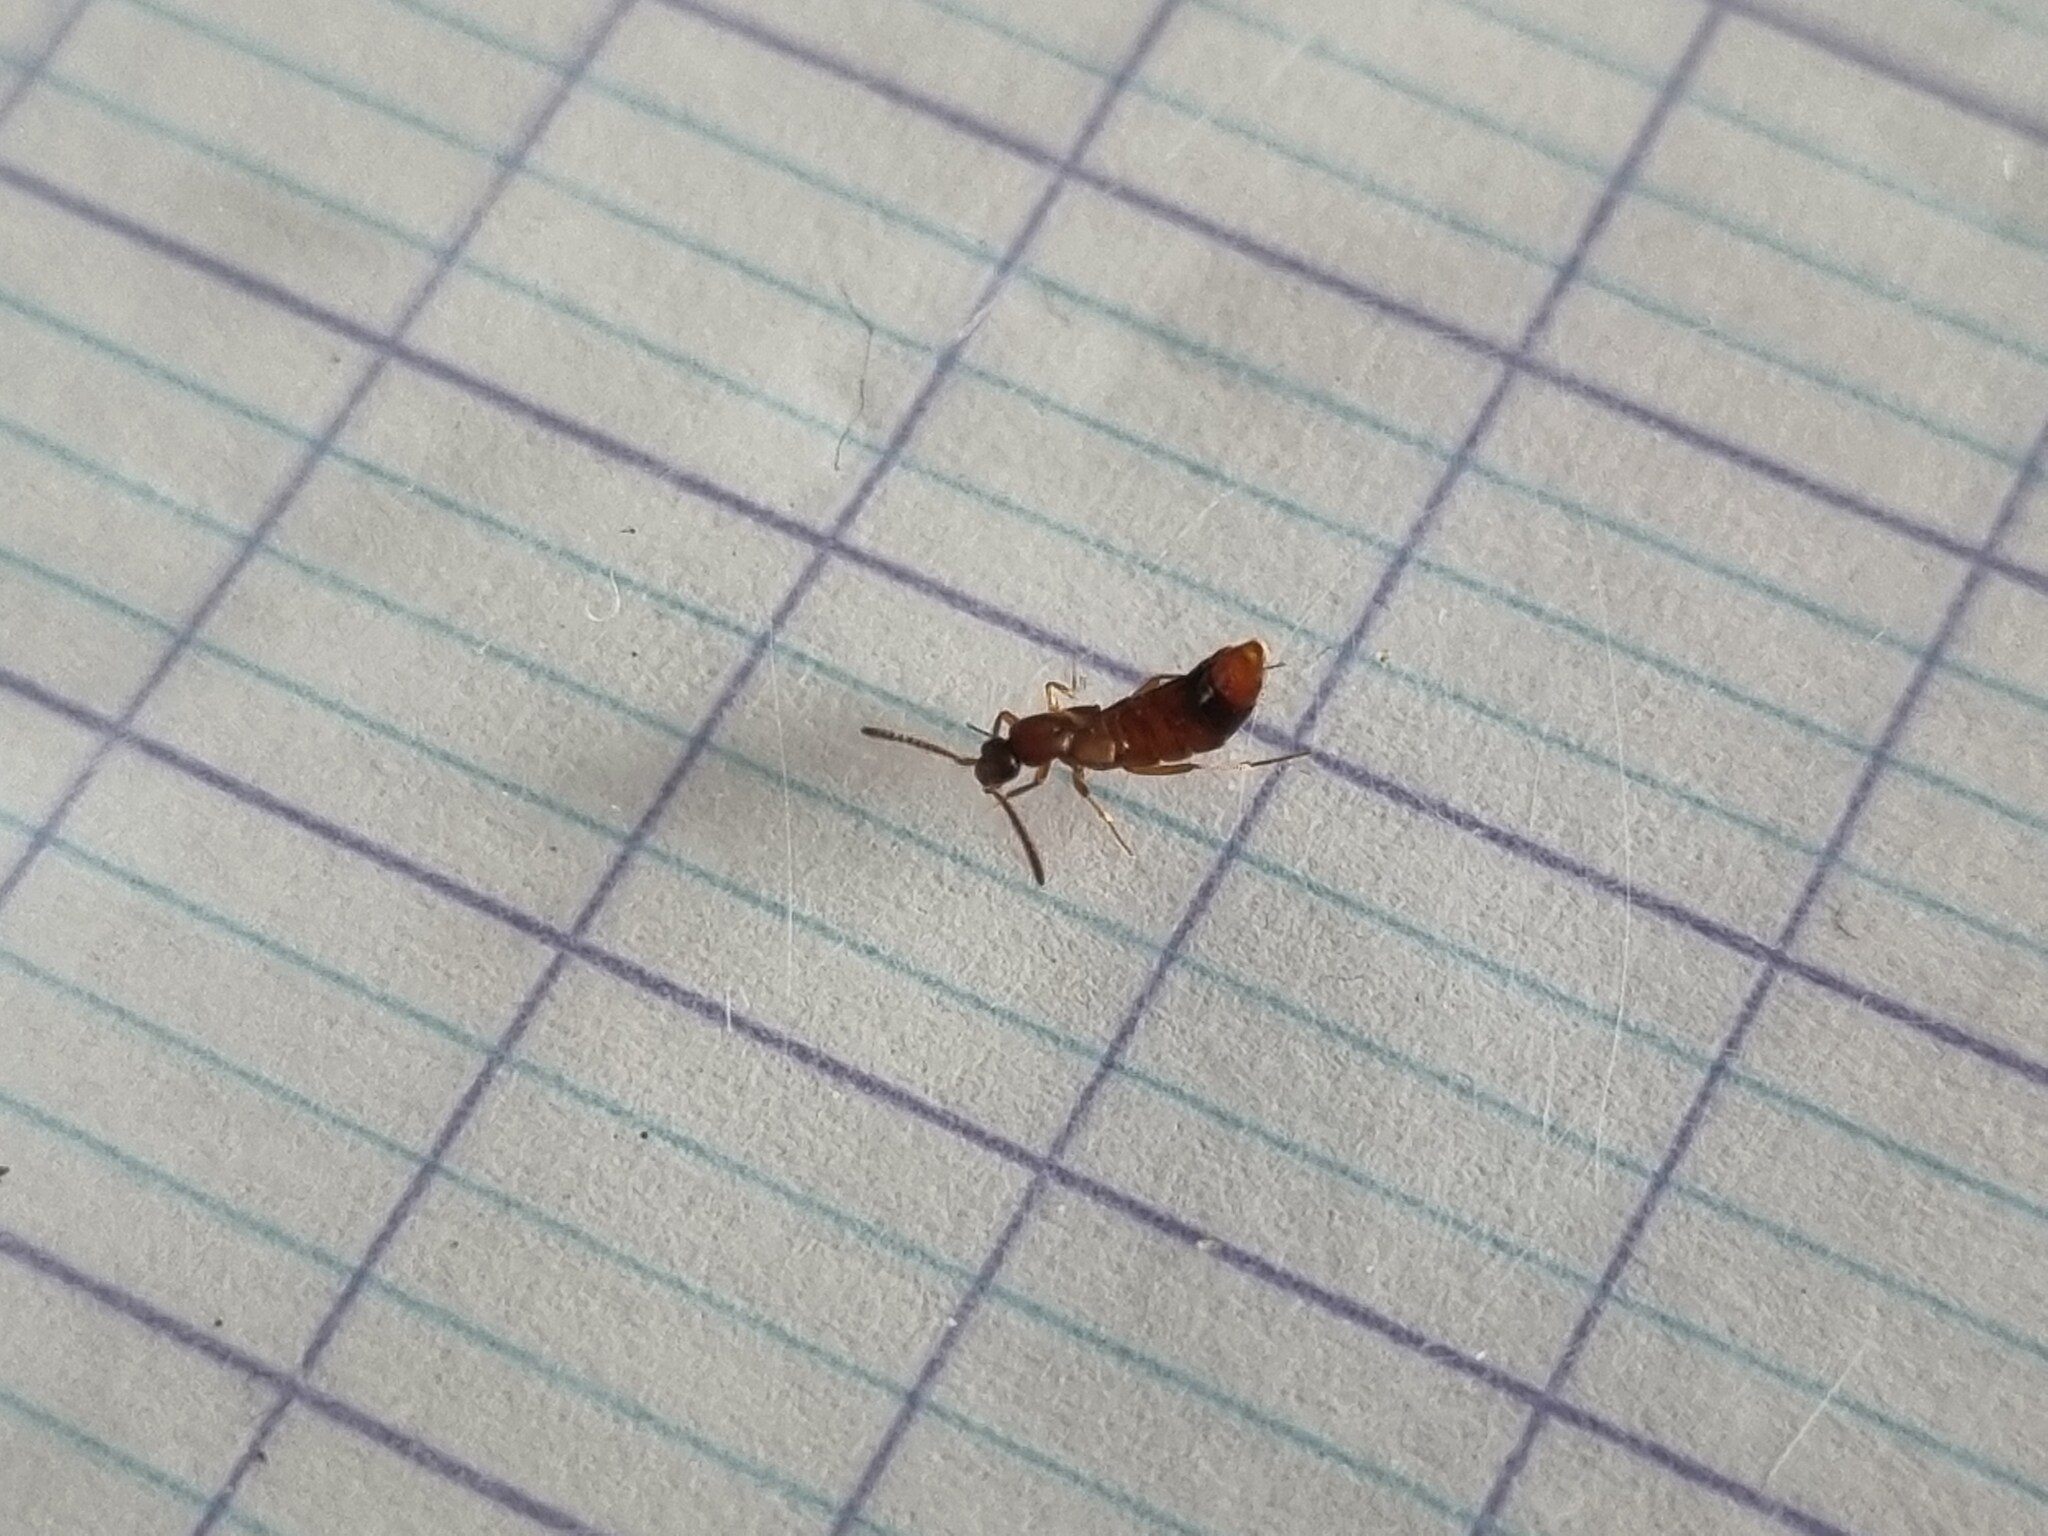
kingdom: Animalia
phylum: Arthropoda
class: Insecta
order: Coleoptera
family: Staphylinidae
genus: Drusilla
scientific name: Drusilla canaliculata
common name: Rove beetle
